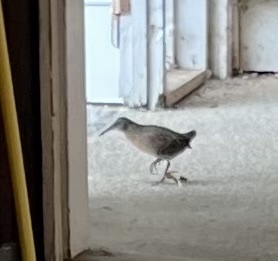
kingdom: Animalia
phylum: Chordata
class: Aves
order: Gruiformes
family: Rallidae
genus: Rallus
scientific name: Rallus limicola
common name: Virginia rail
